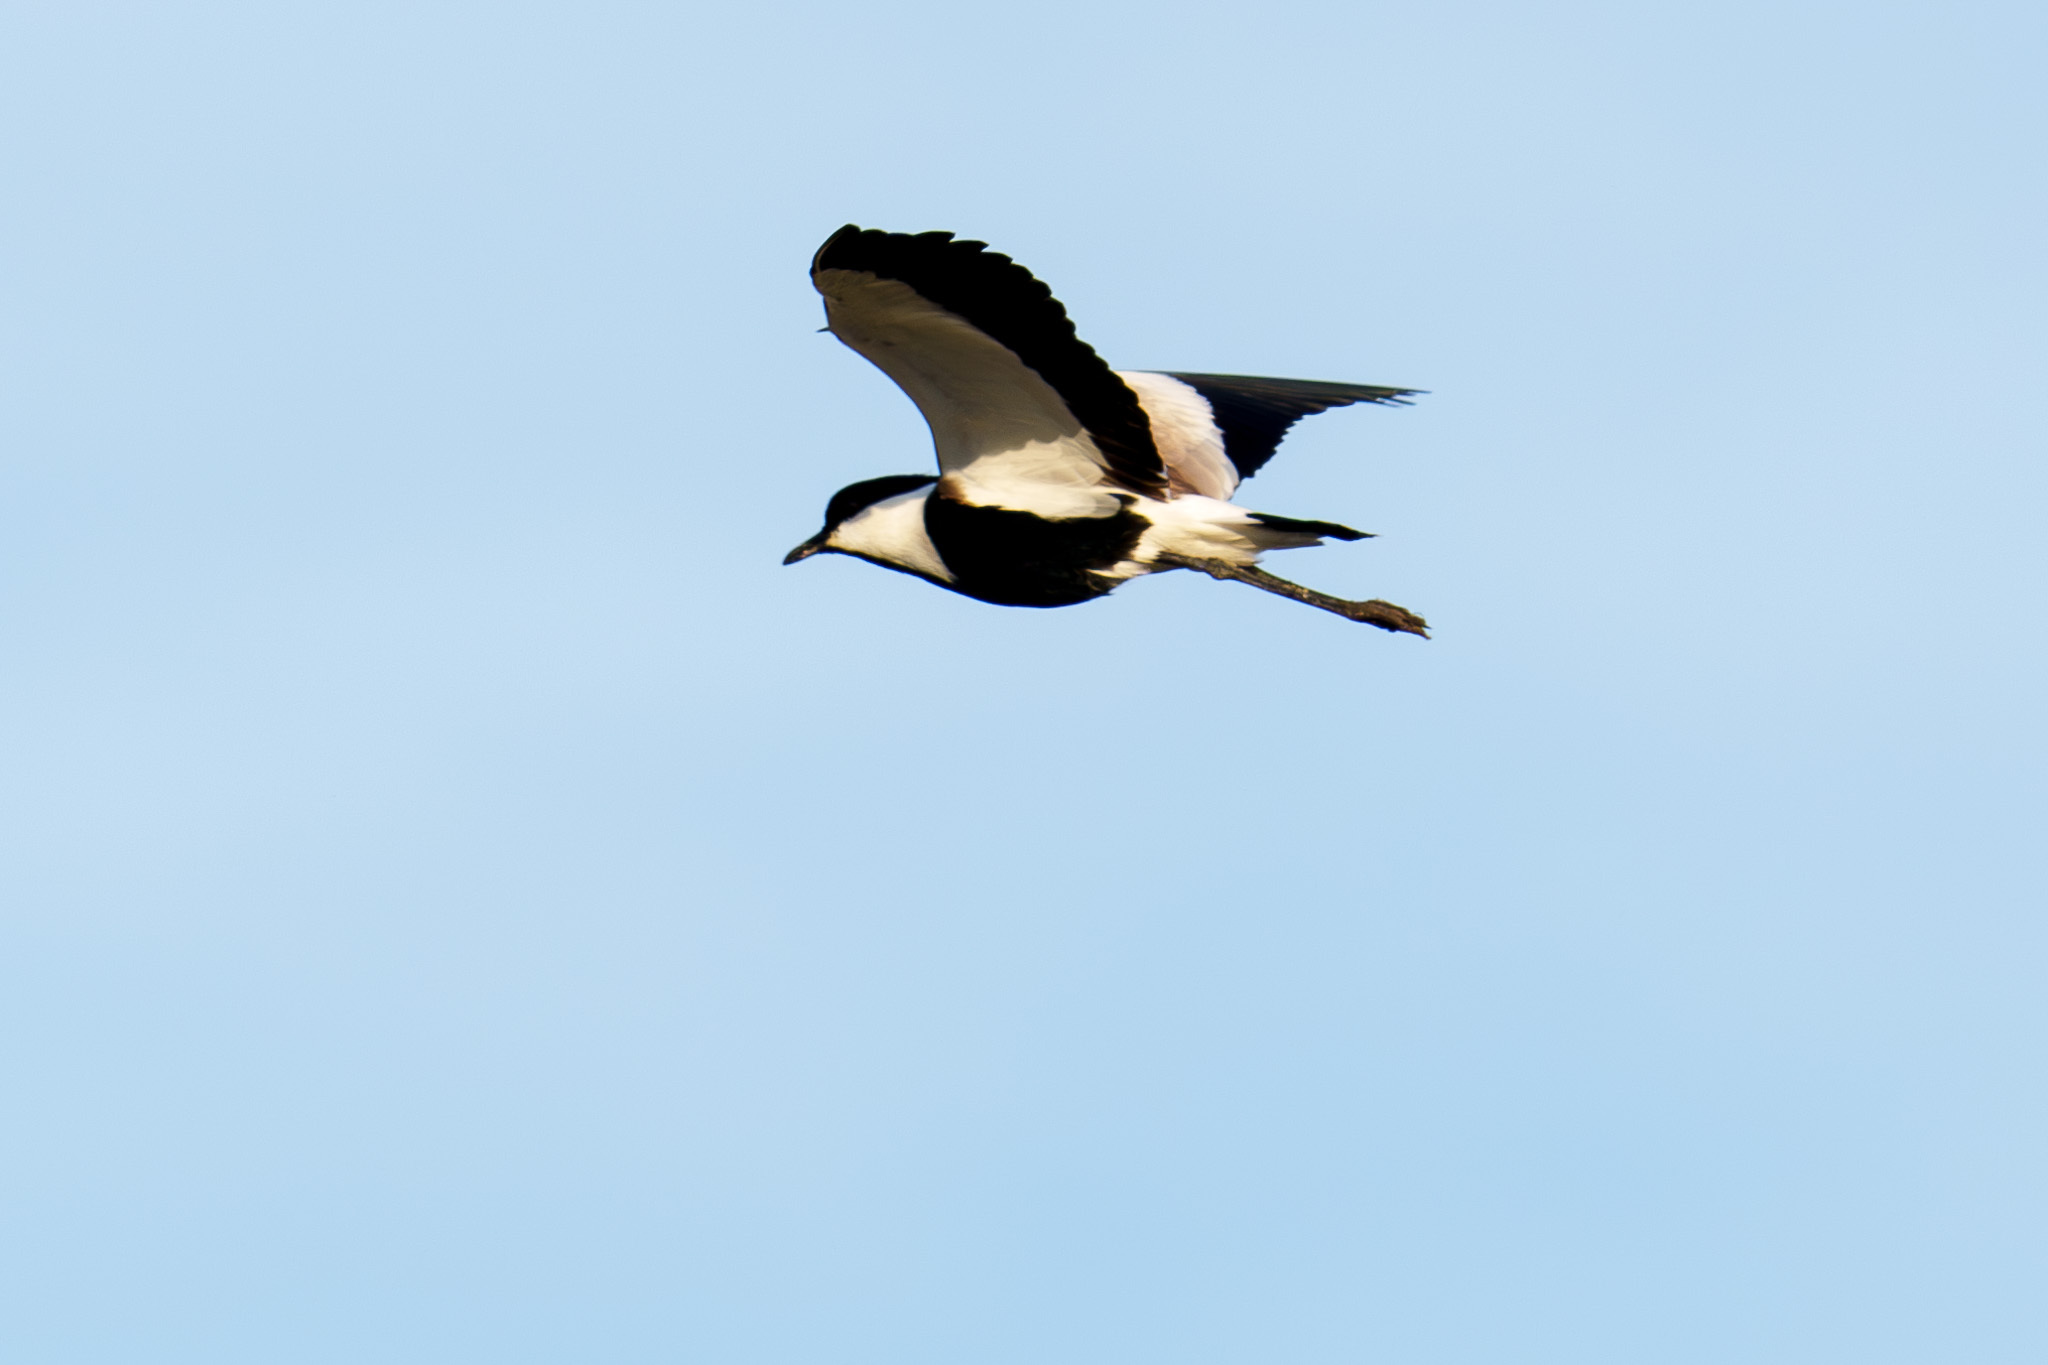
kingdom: Animalia
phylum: Chordata
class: Aves
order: Charadriiformes
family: Charadriidae
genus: Vanellus
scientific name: Vanellus spinosus
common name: Spur-winged lapwing
